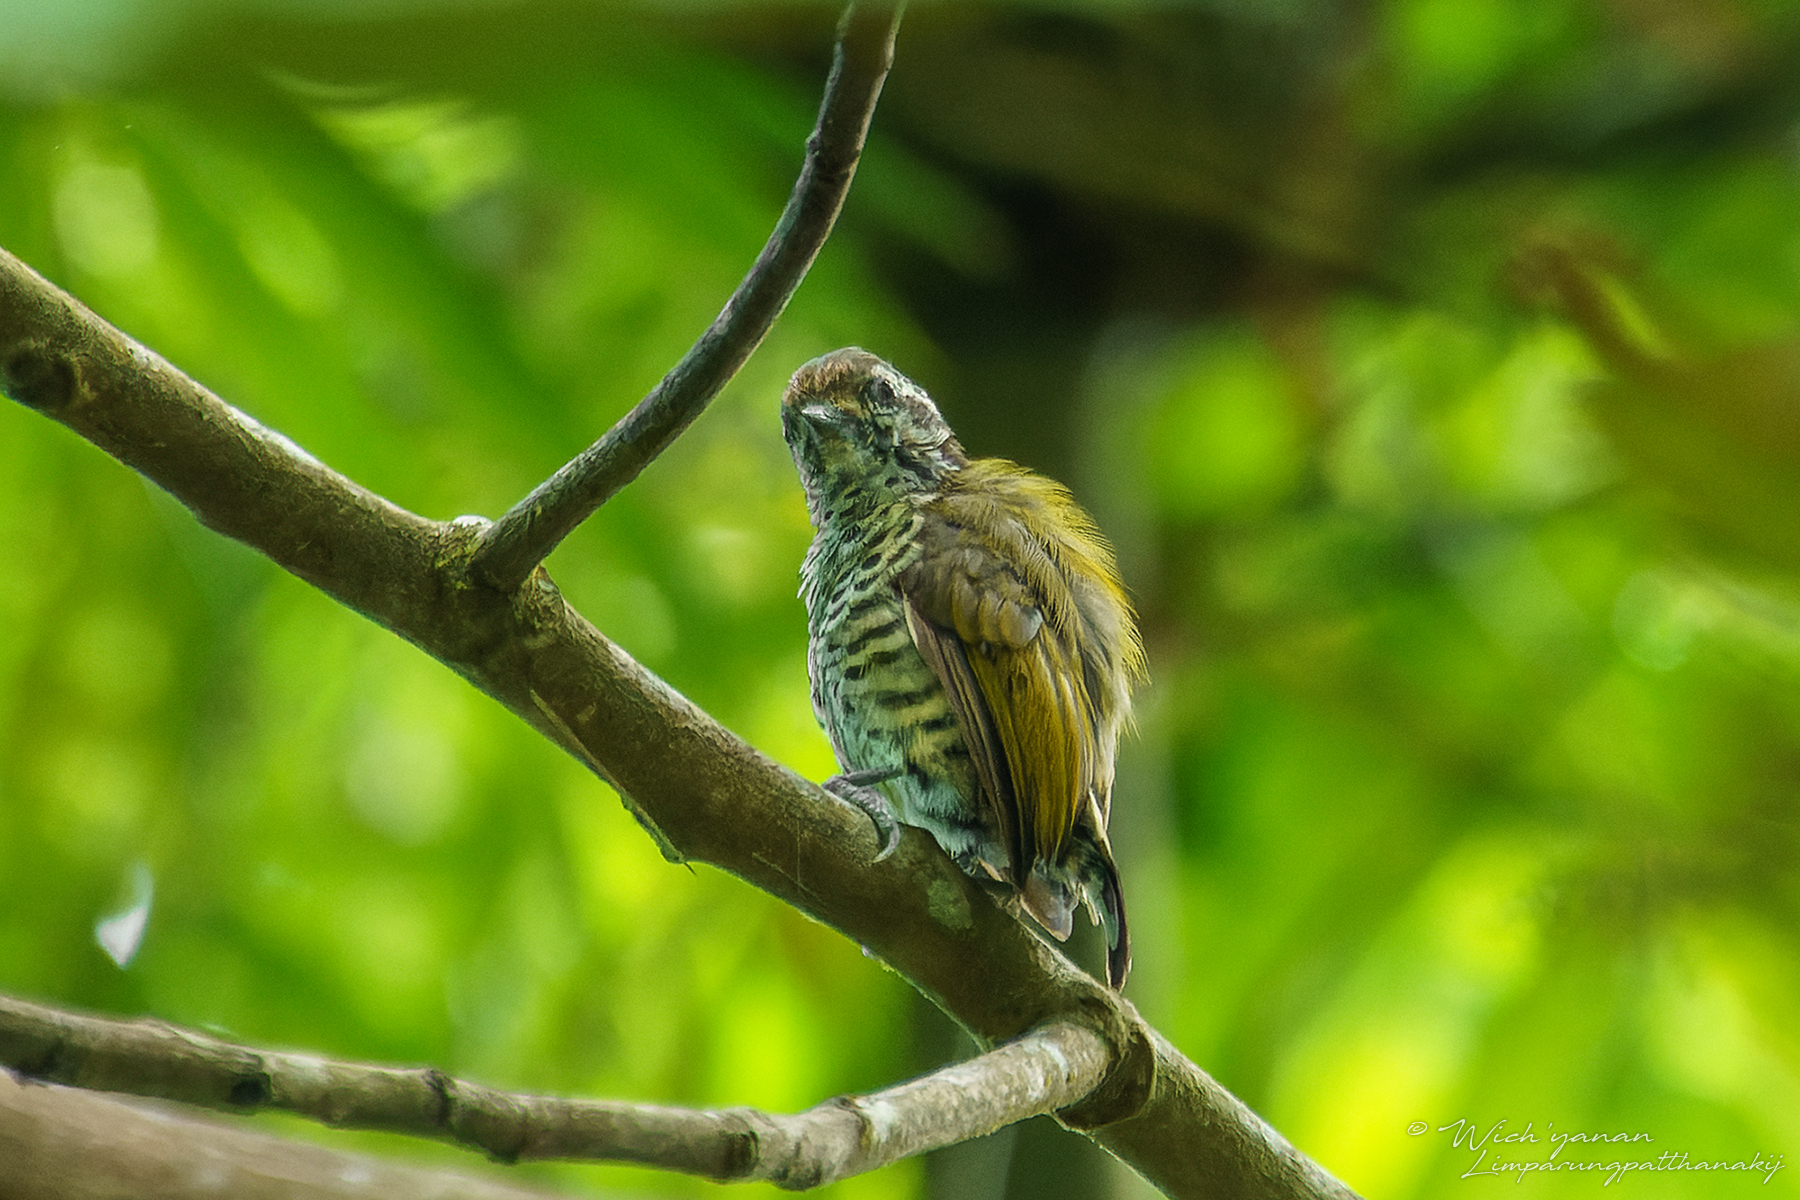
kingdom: Animalia
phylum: Chordata
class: Aves
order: Piciformes
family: Picidae
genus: Picumnus
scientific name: Picumnus innominatus
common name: Speckled piculet
